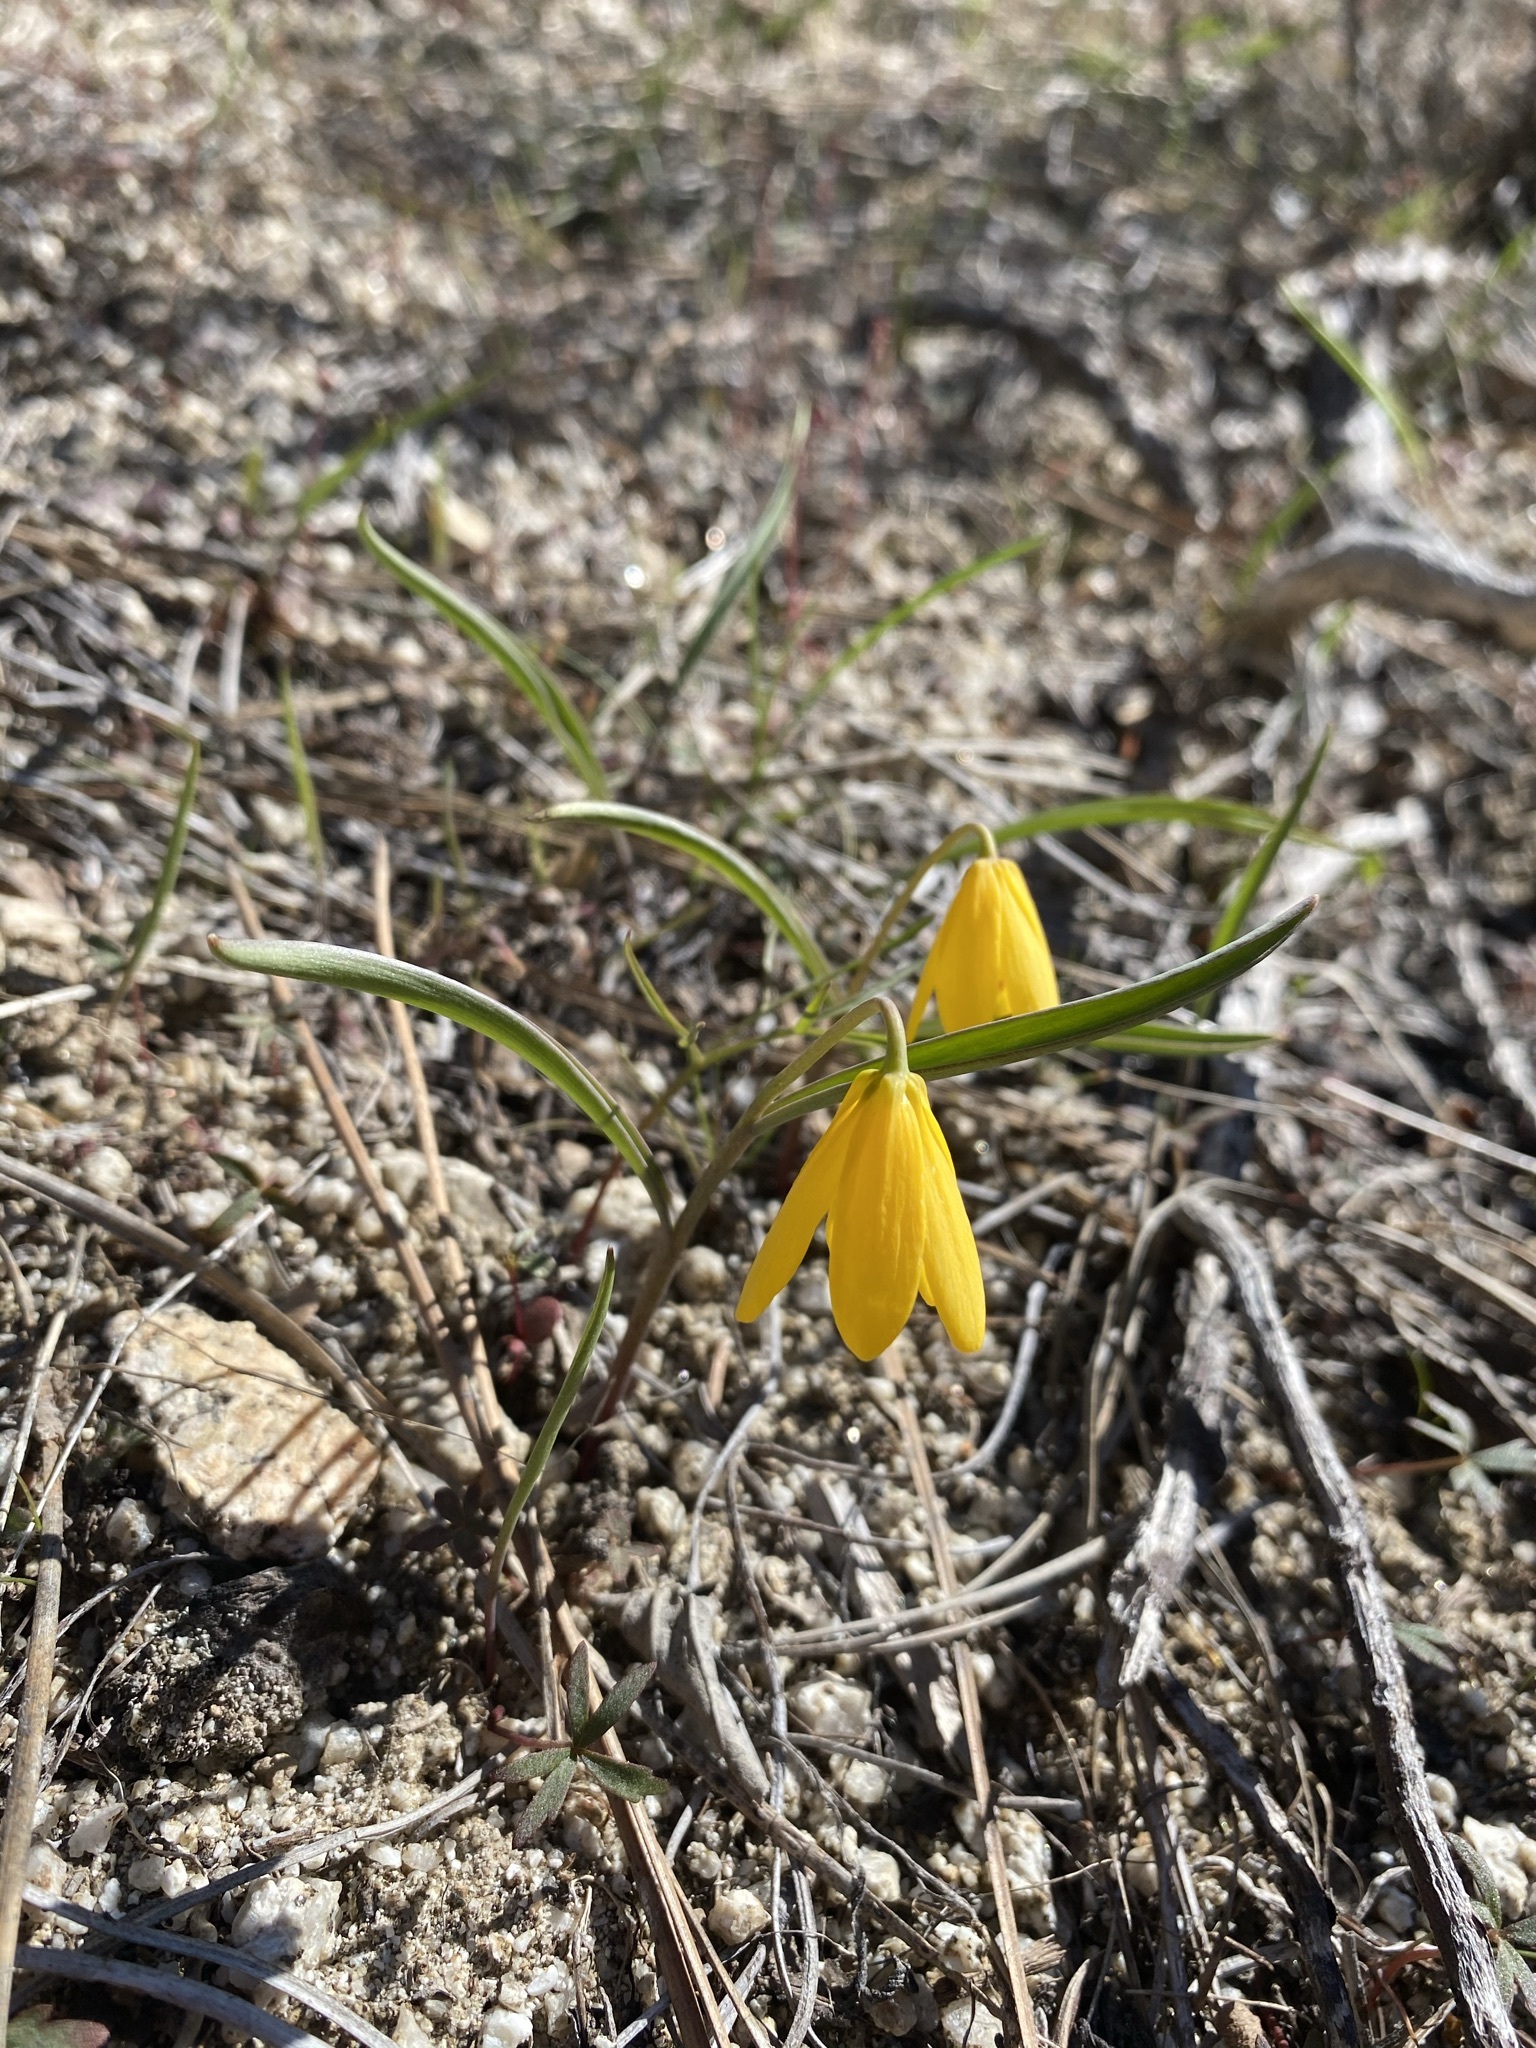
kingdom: Plantae
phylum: Tracheophyta
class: Liliopsida
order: Liliales
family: Liliaceae
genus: Fritillaria
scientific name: Fritillaria pudica
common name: Yellow fritillary
